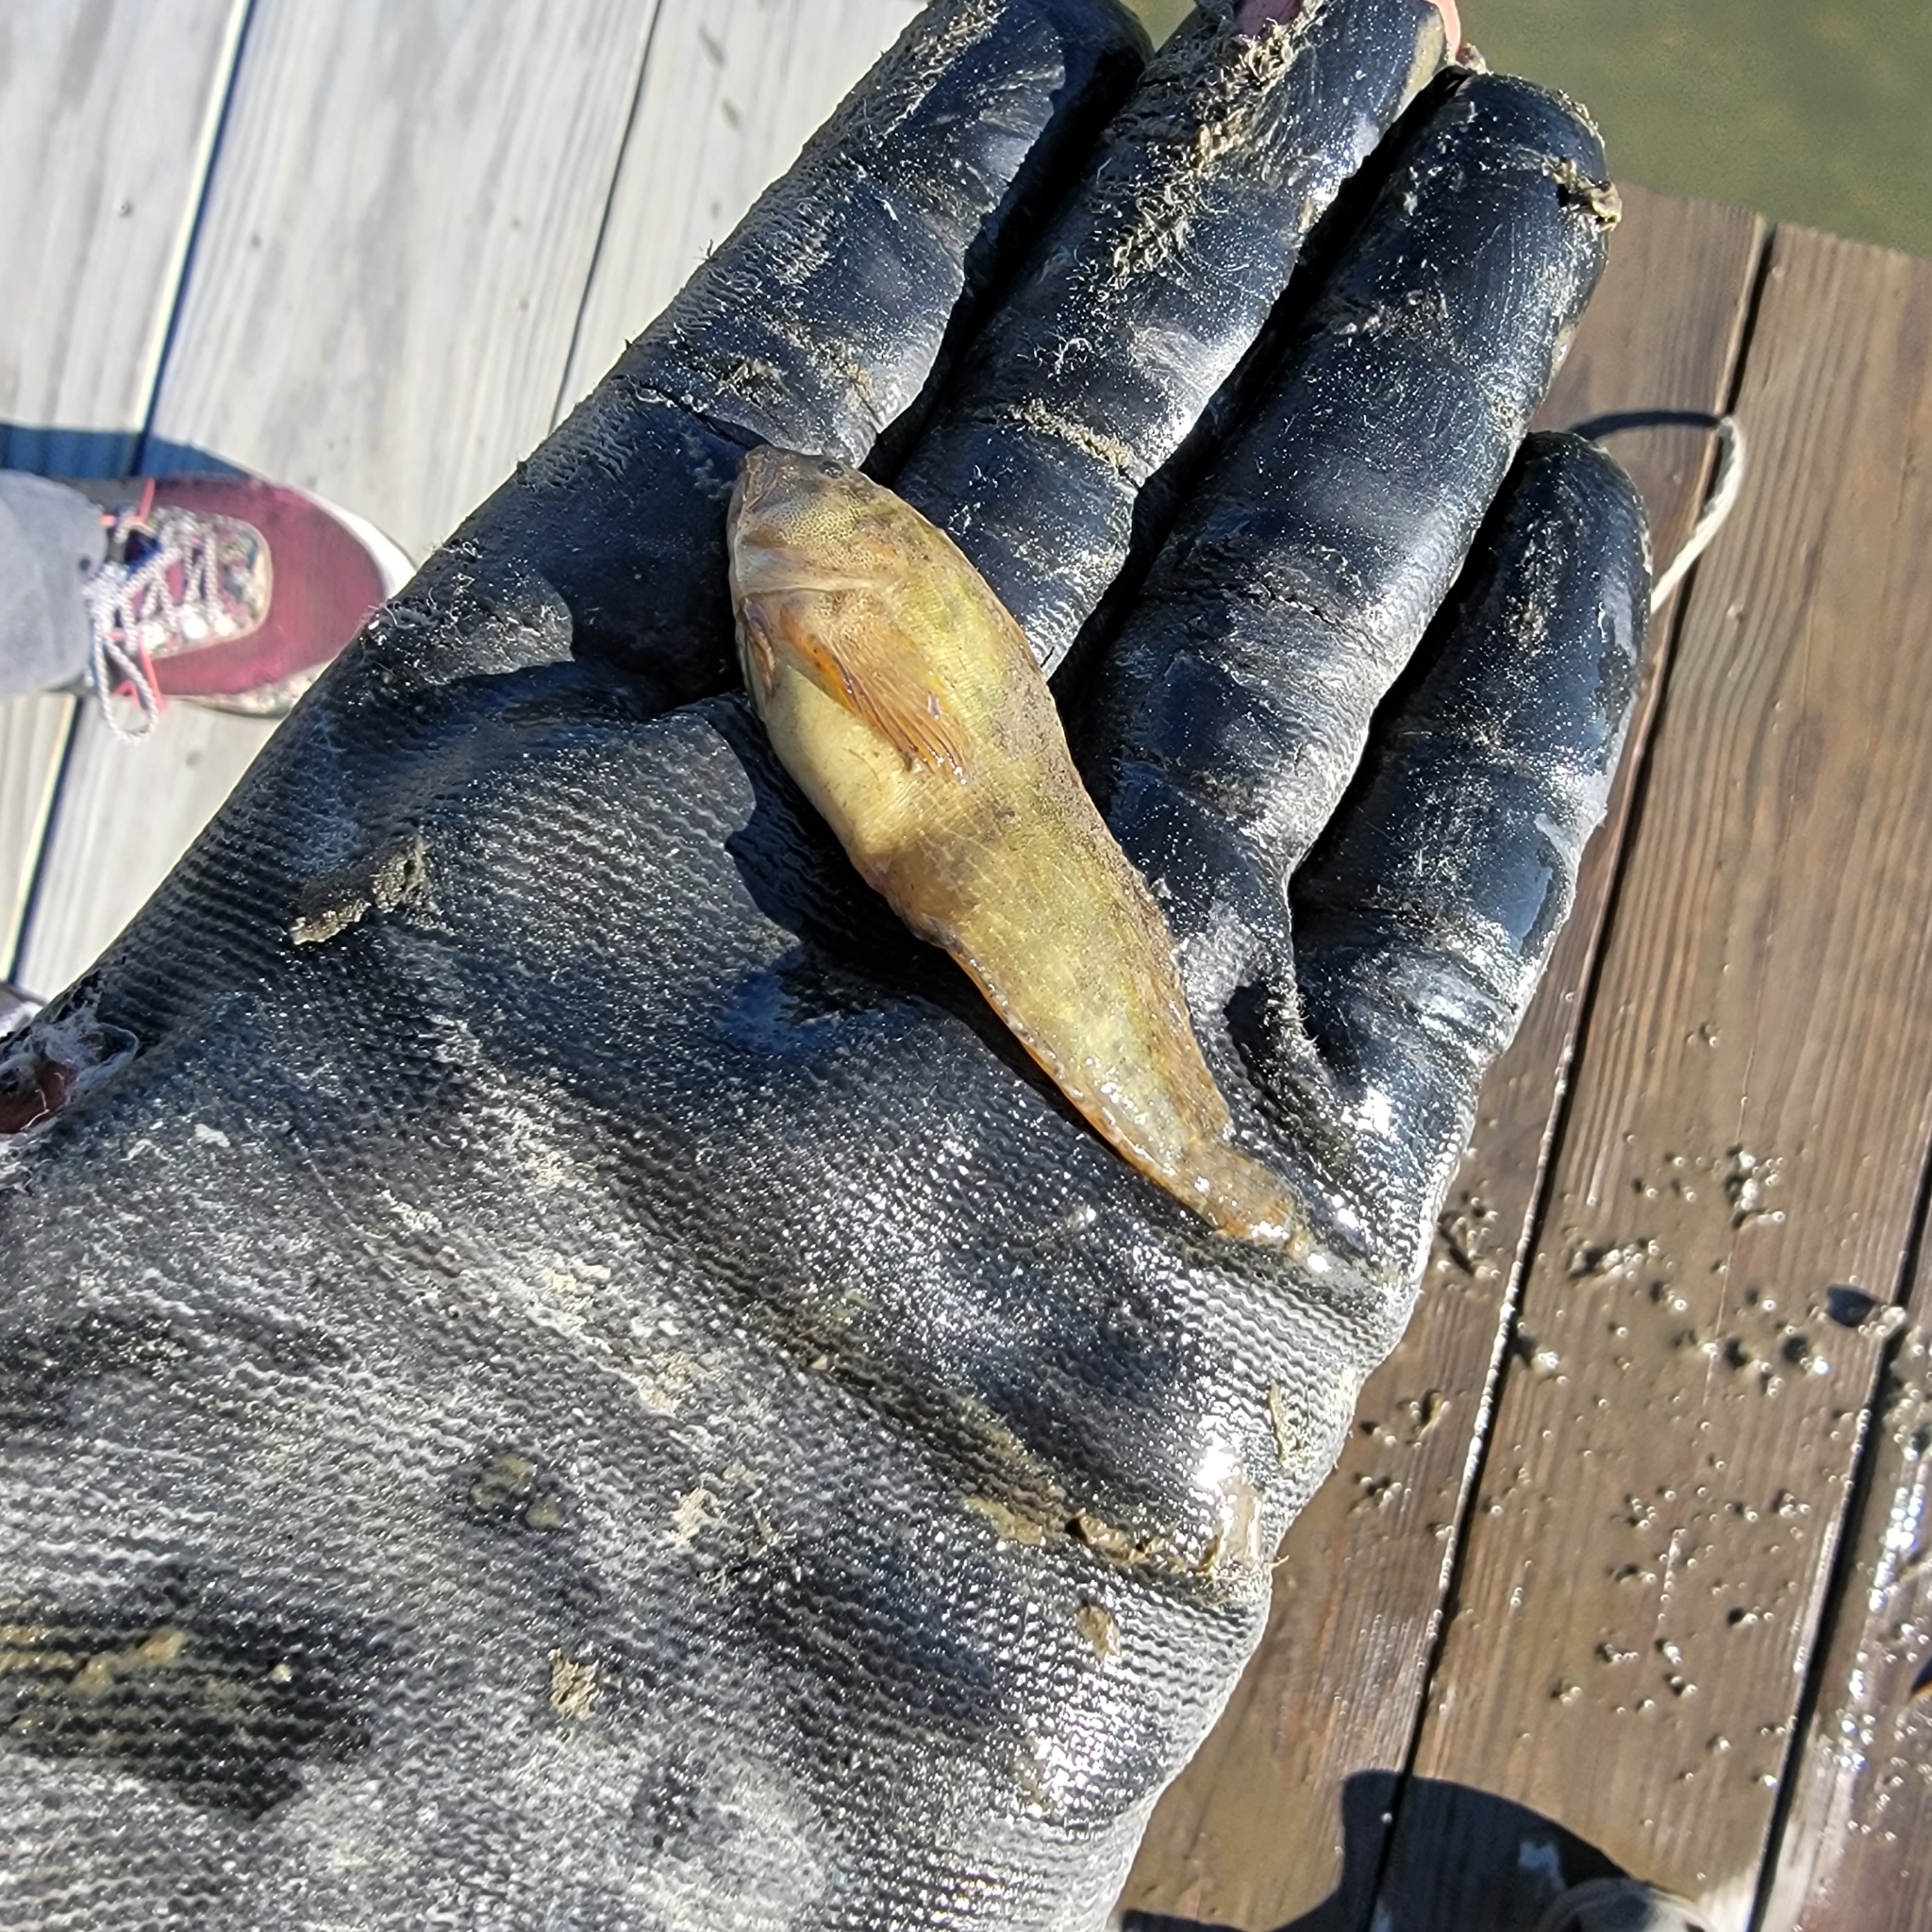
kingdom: Animalia
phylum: Chordata
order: Perciformes
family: Blenniidae
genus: Chasmodes
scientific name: Chasmodes bosquianus
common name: Striped blenny
